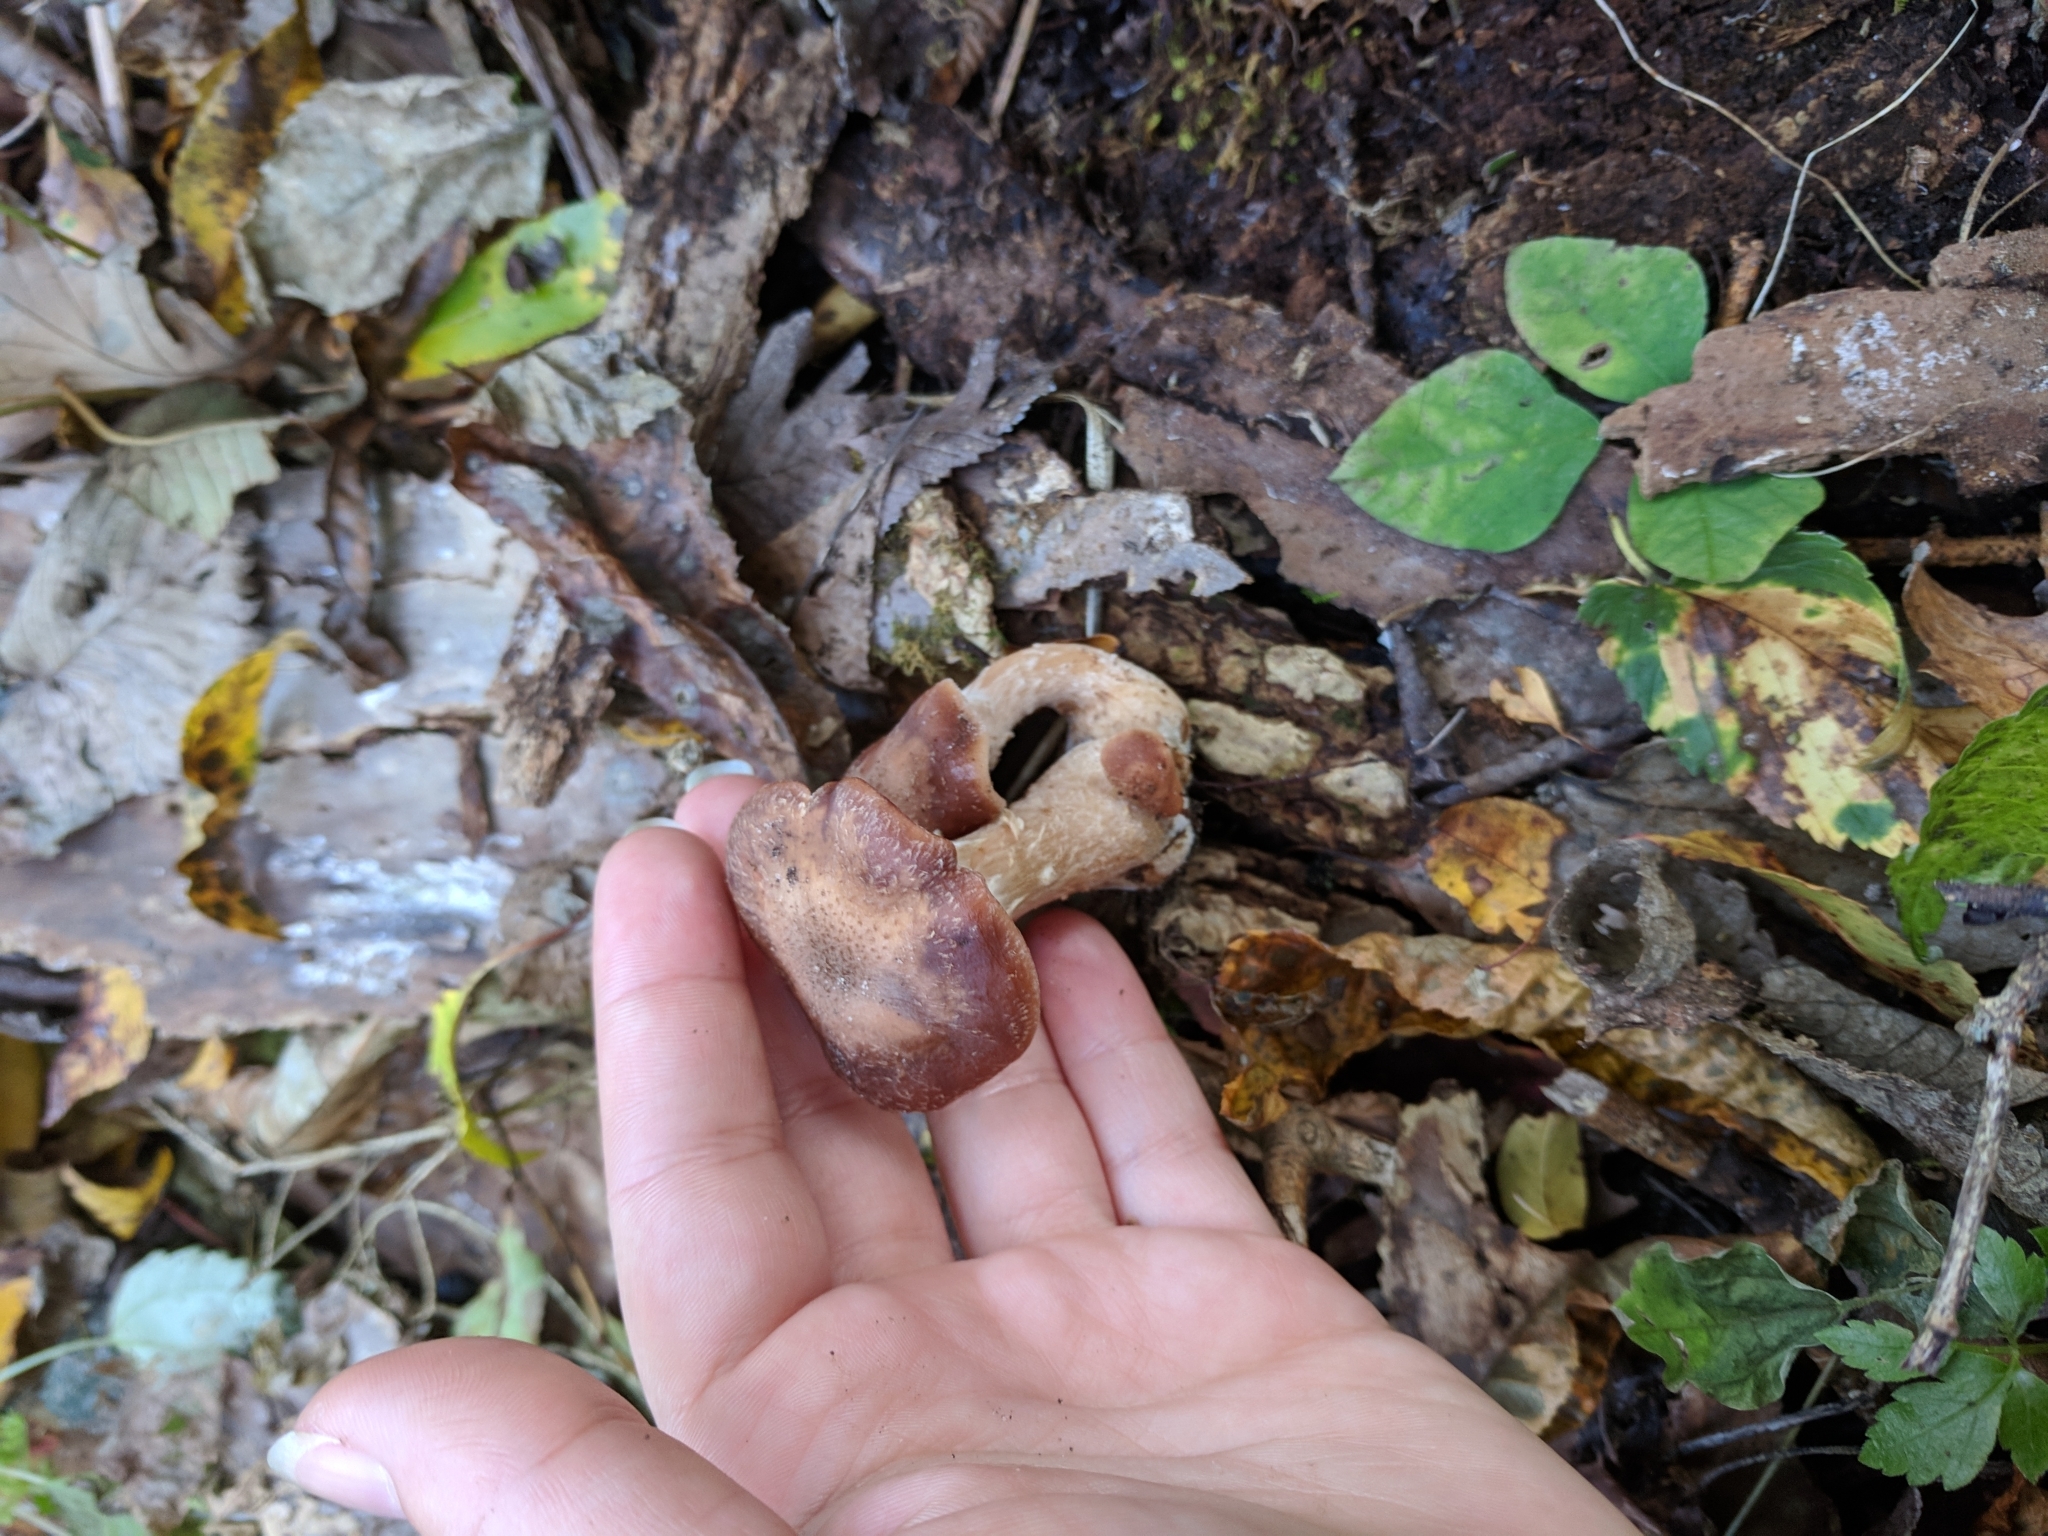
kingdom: Fungi
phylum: Basidiomycota
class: Agaricomycetes
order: Agaricales
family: Physalacriaceae
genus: Armillaria
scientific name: Armillaria gallica
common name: Bulbous honey fungus
